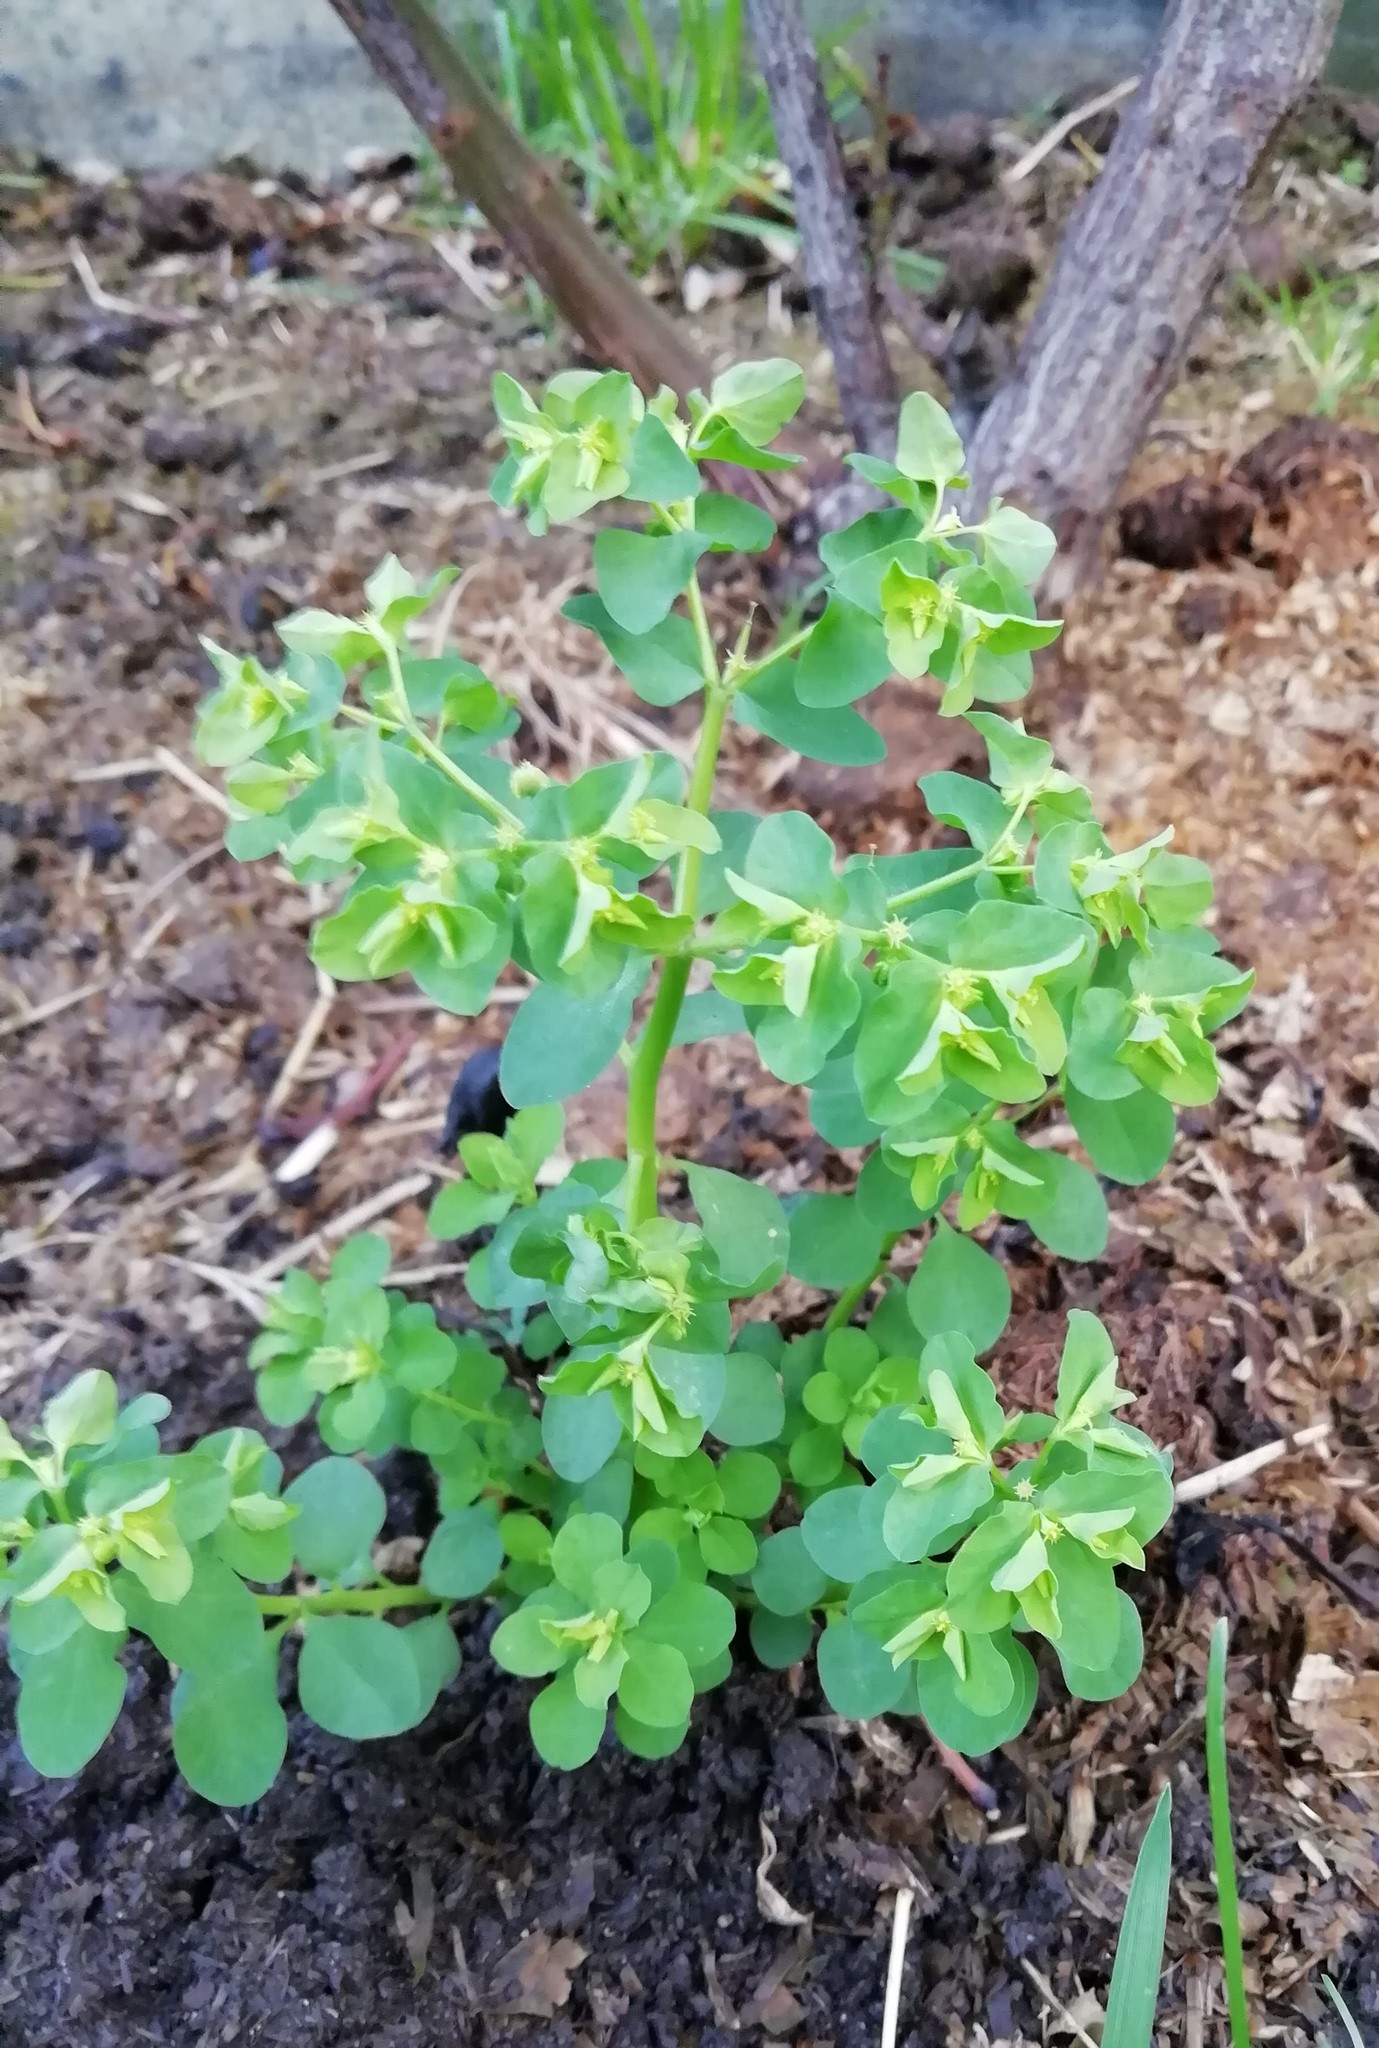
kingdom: Plantae
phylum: Tracheophyta
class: Magnoliopsida
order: Malpighiales
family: Euphorbiaceae
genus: Euphorbia
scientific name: Euphorbia peplus
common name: Petty spurge
